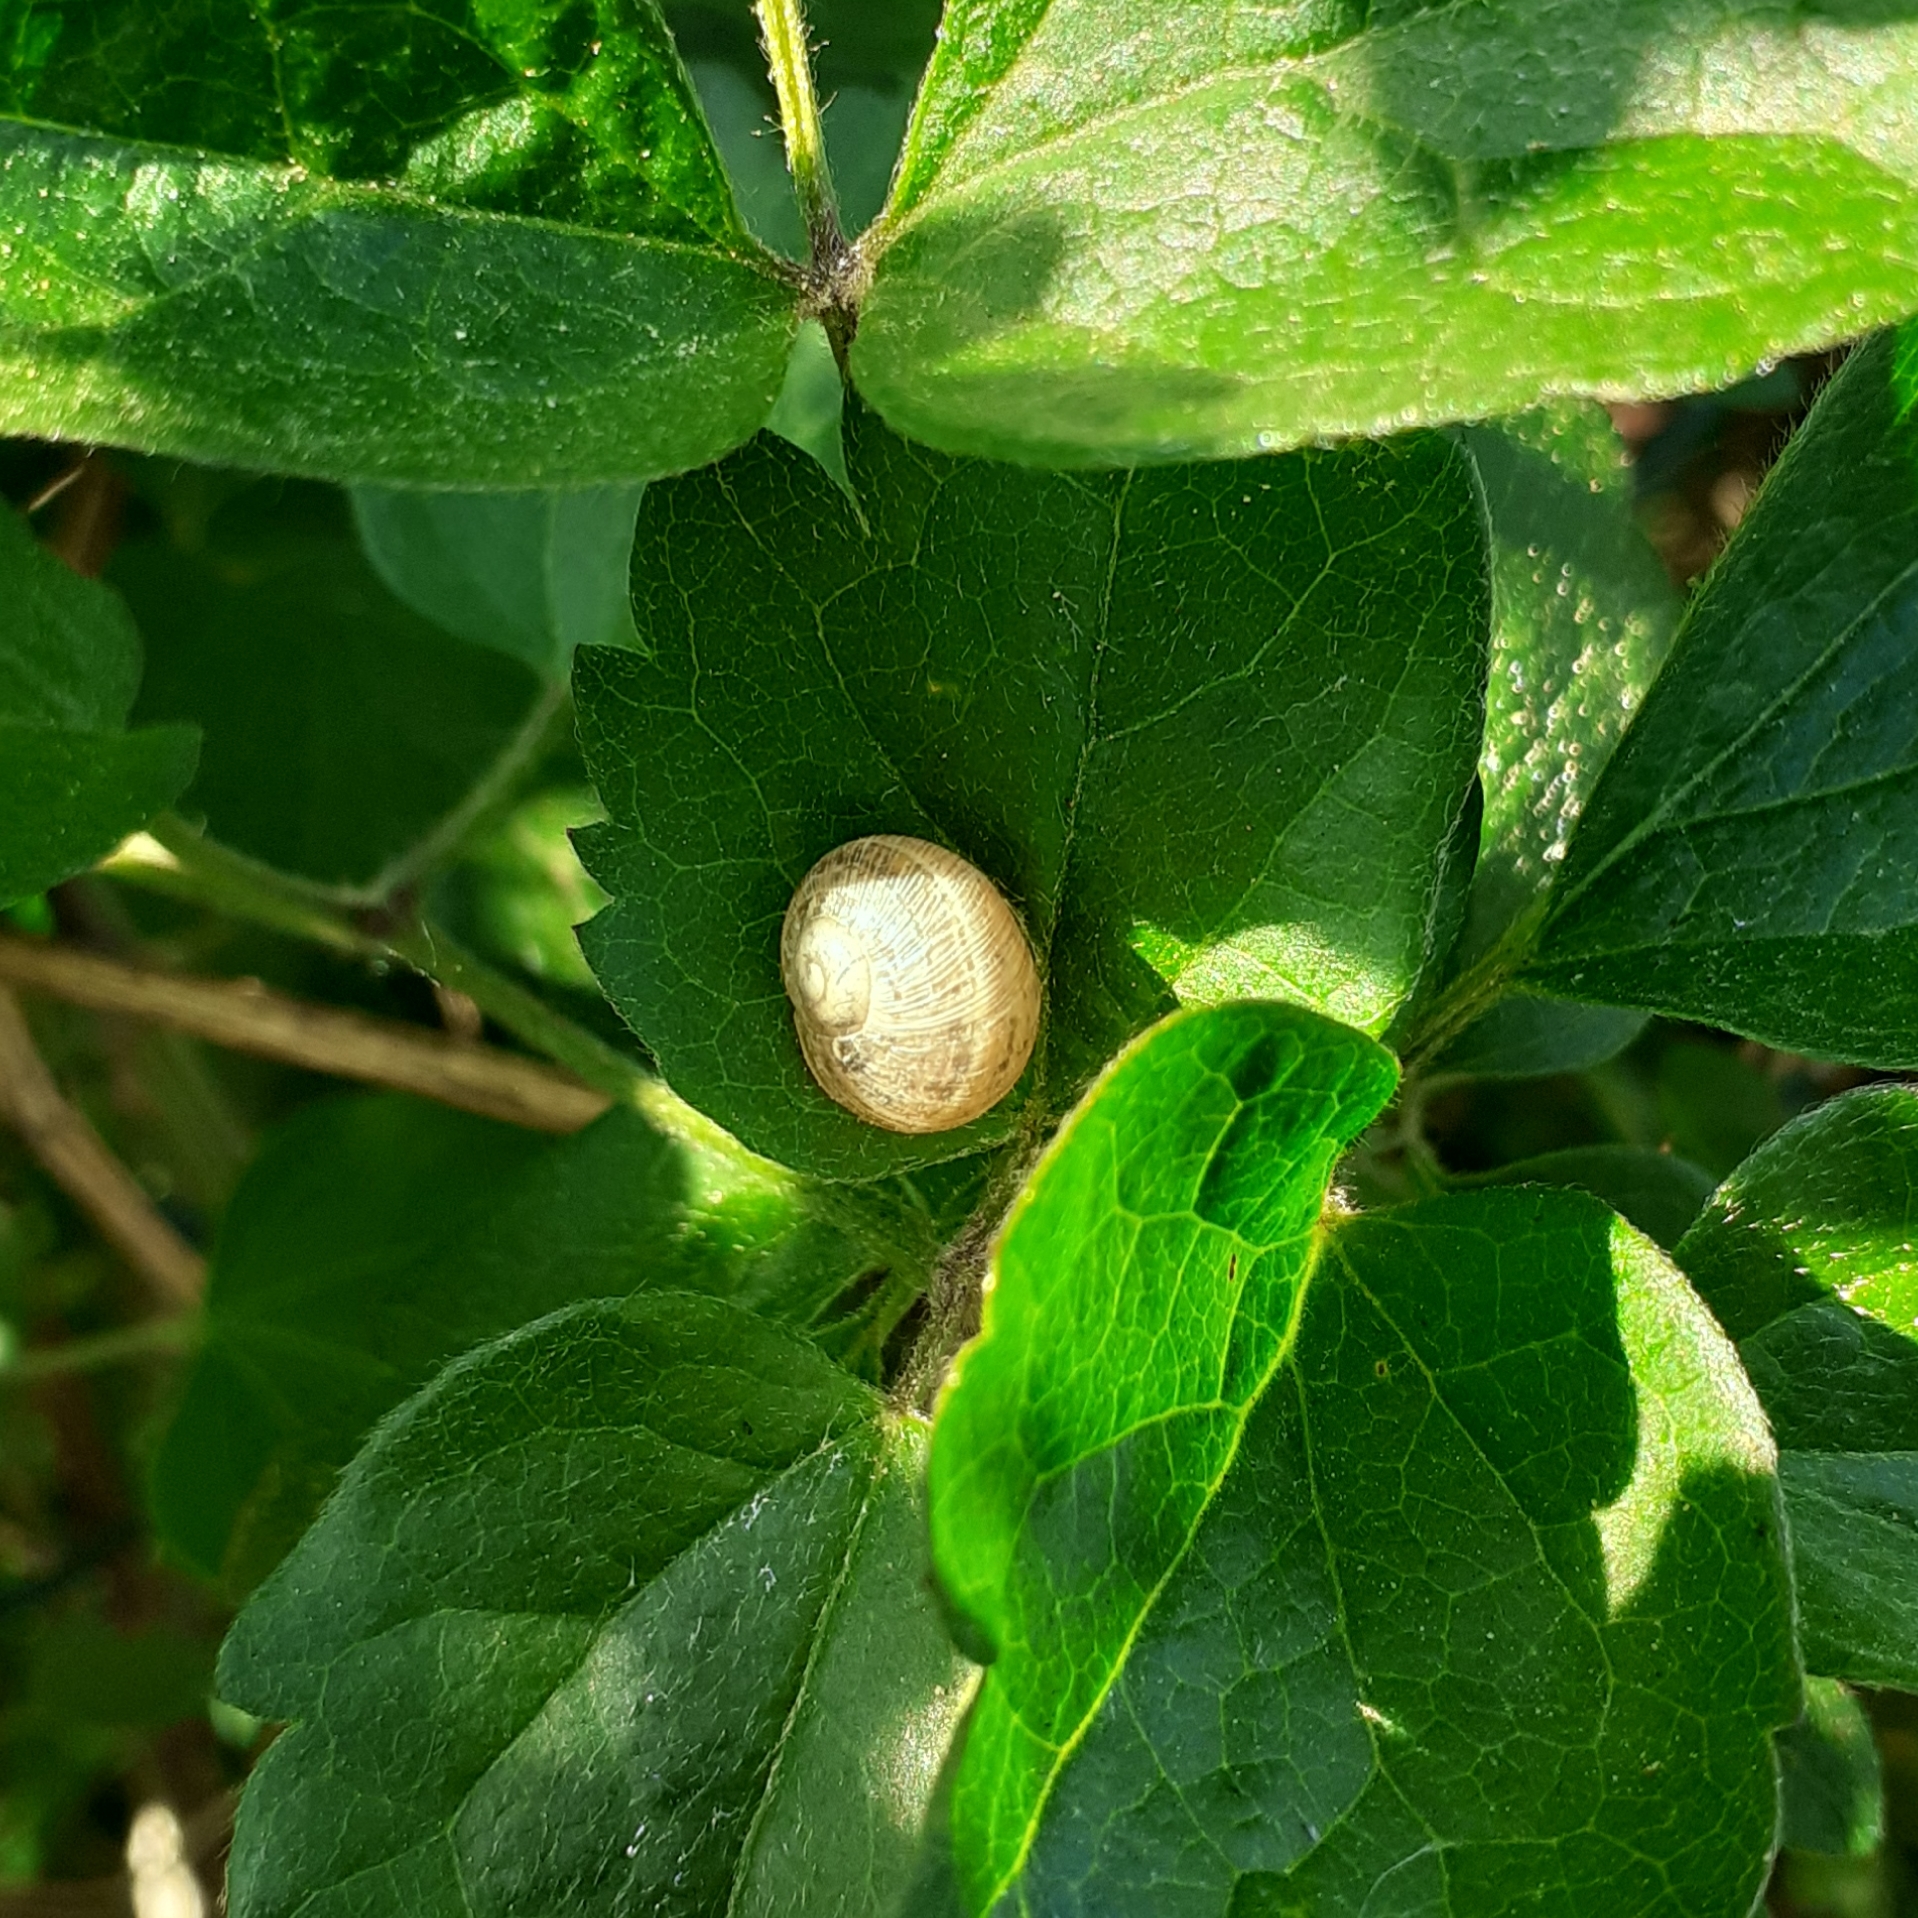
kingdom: Animalia
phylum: Mollusca
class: Gastropoda
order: Stylommatophora
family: Helicidae
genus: Cornu
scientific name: Cornu aspersum
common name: Brown garden snail
